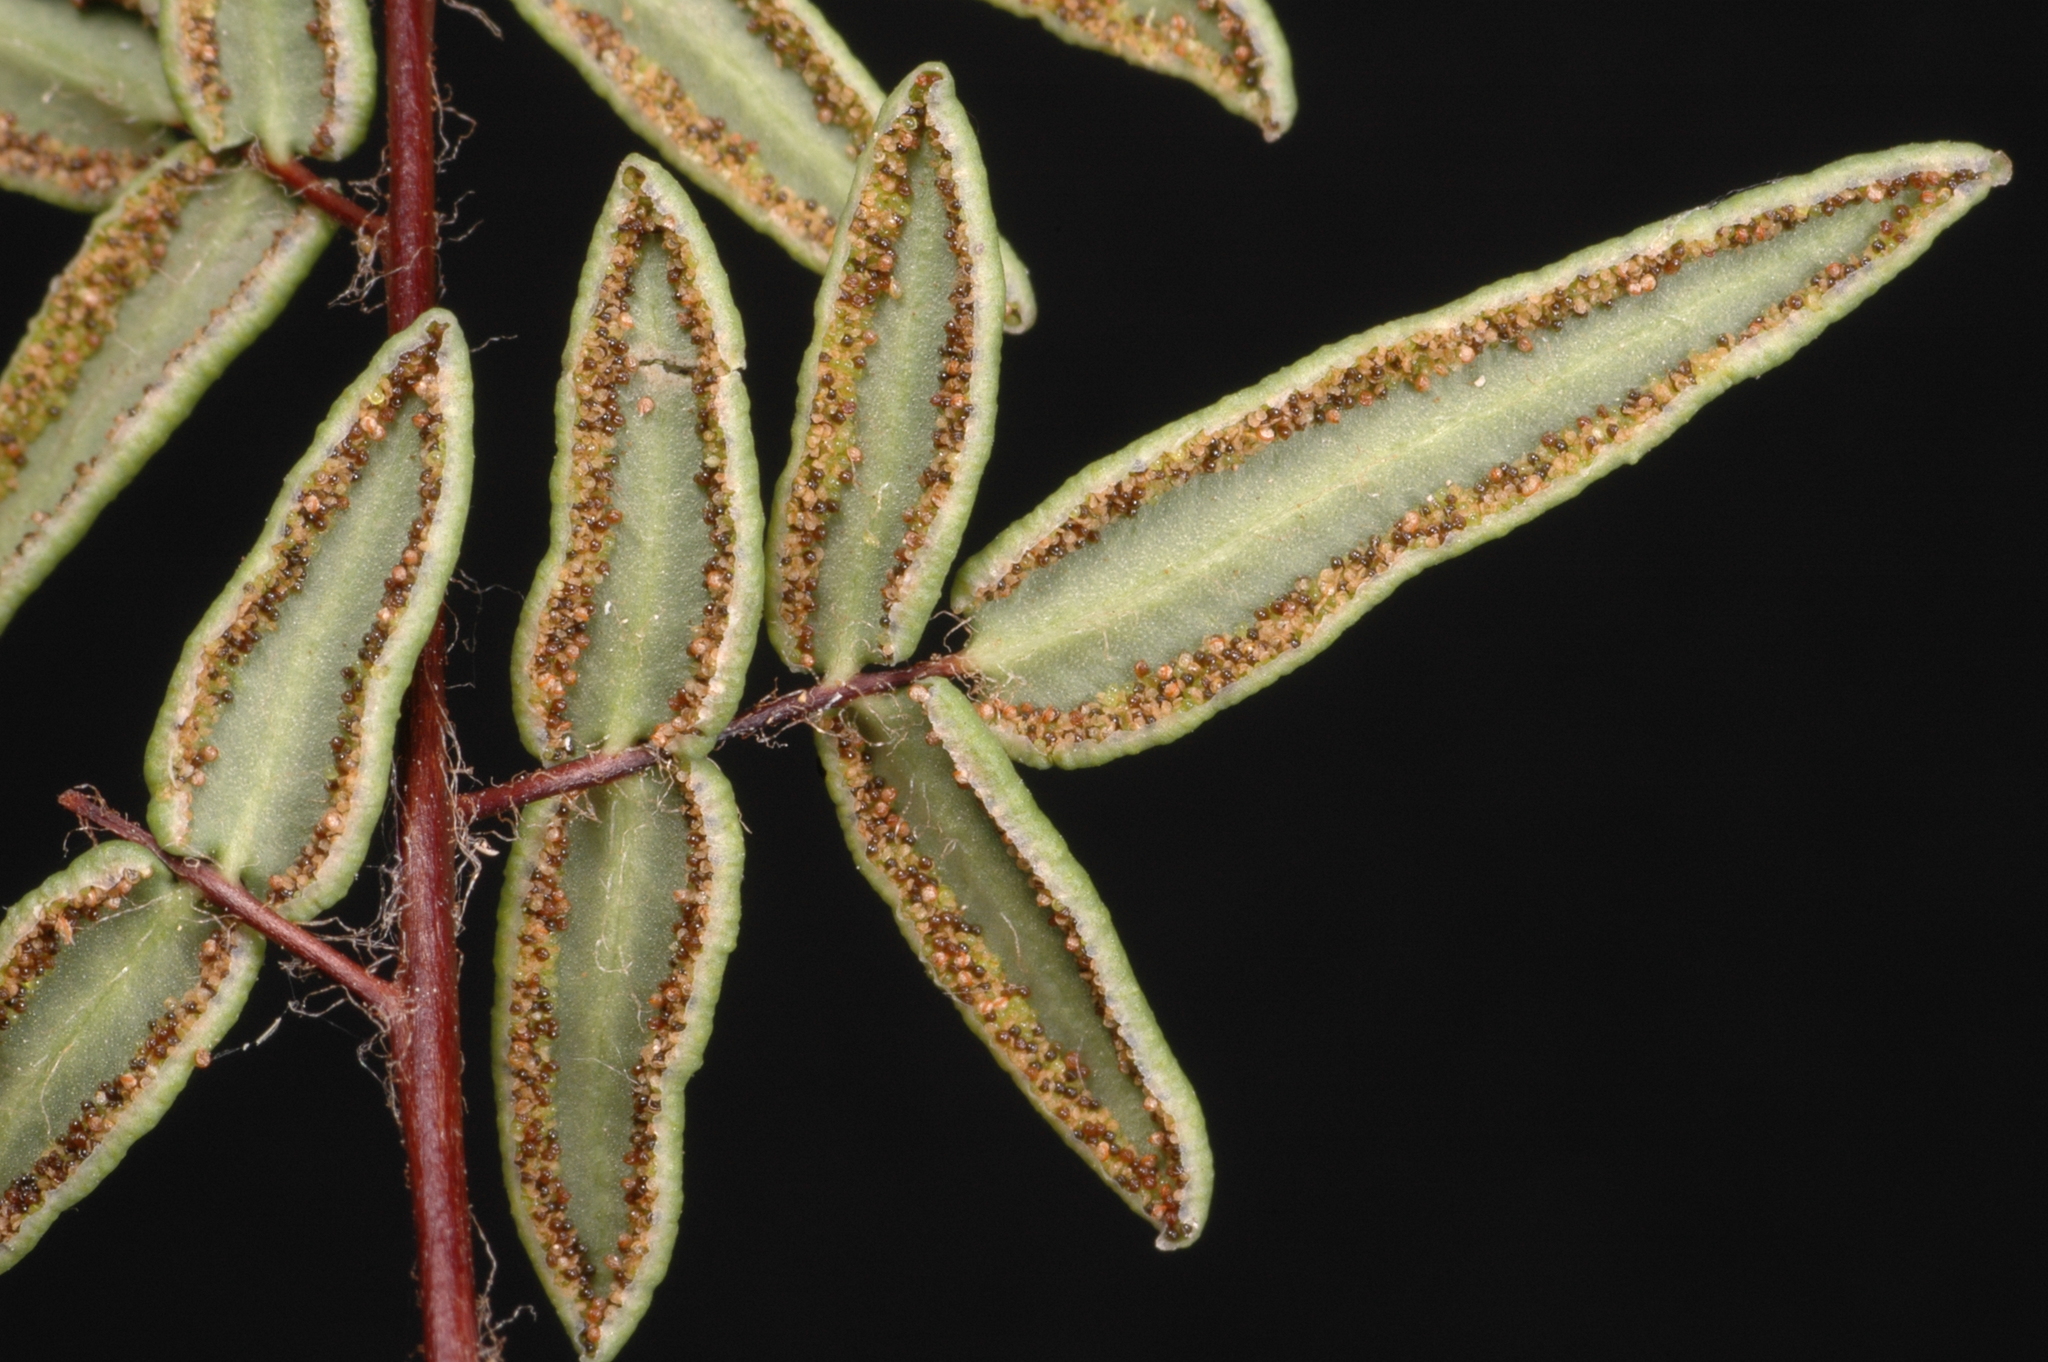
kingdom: Plantae
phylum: Tracheophyta
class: Polypodiopsida
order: Polypodiales
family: Pteridaceae
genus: Pellaea
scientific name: Pellaea gastonyi
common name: Gastony's cliffbrake
